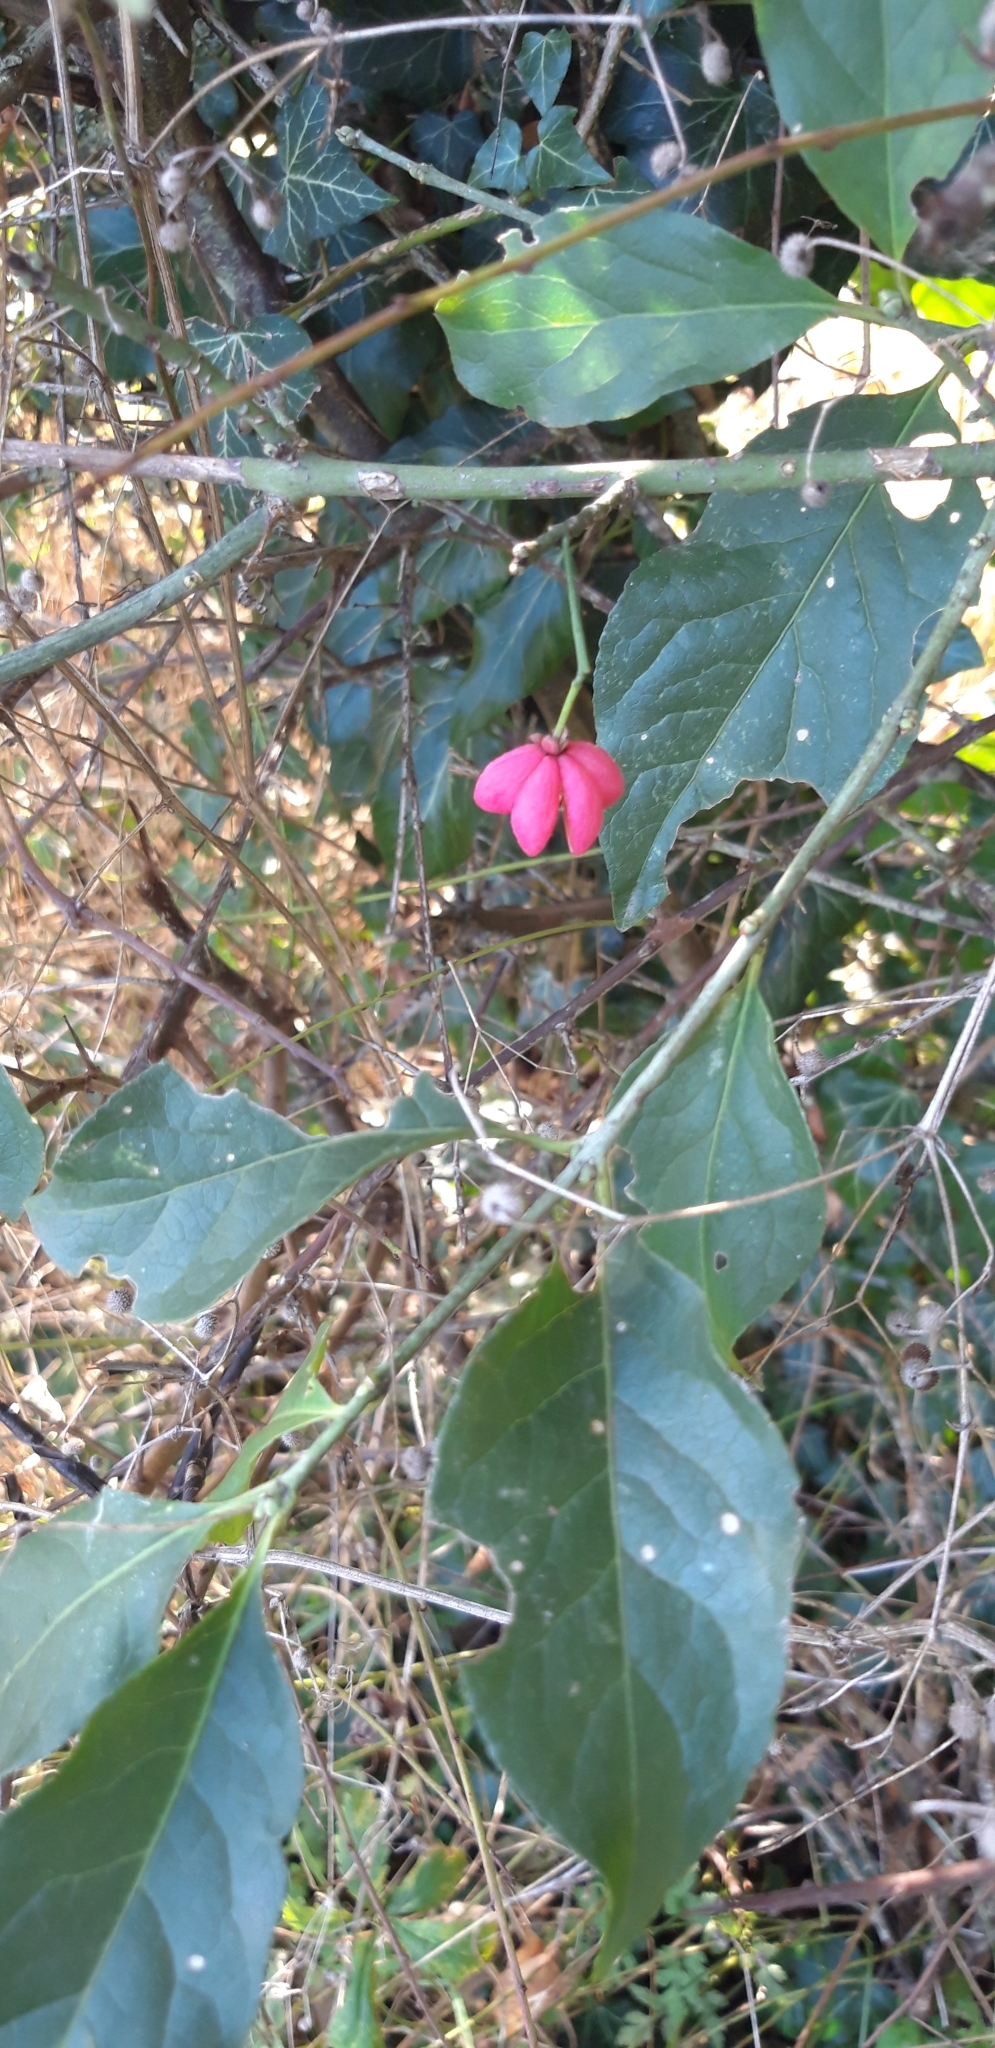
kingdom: Plantae
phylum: Tracheophyta
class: Magnoliopsida
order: Celastrales
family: Celastraceae
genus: Euonymus
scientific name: Euonymus europaeus
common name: Spindle
